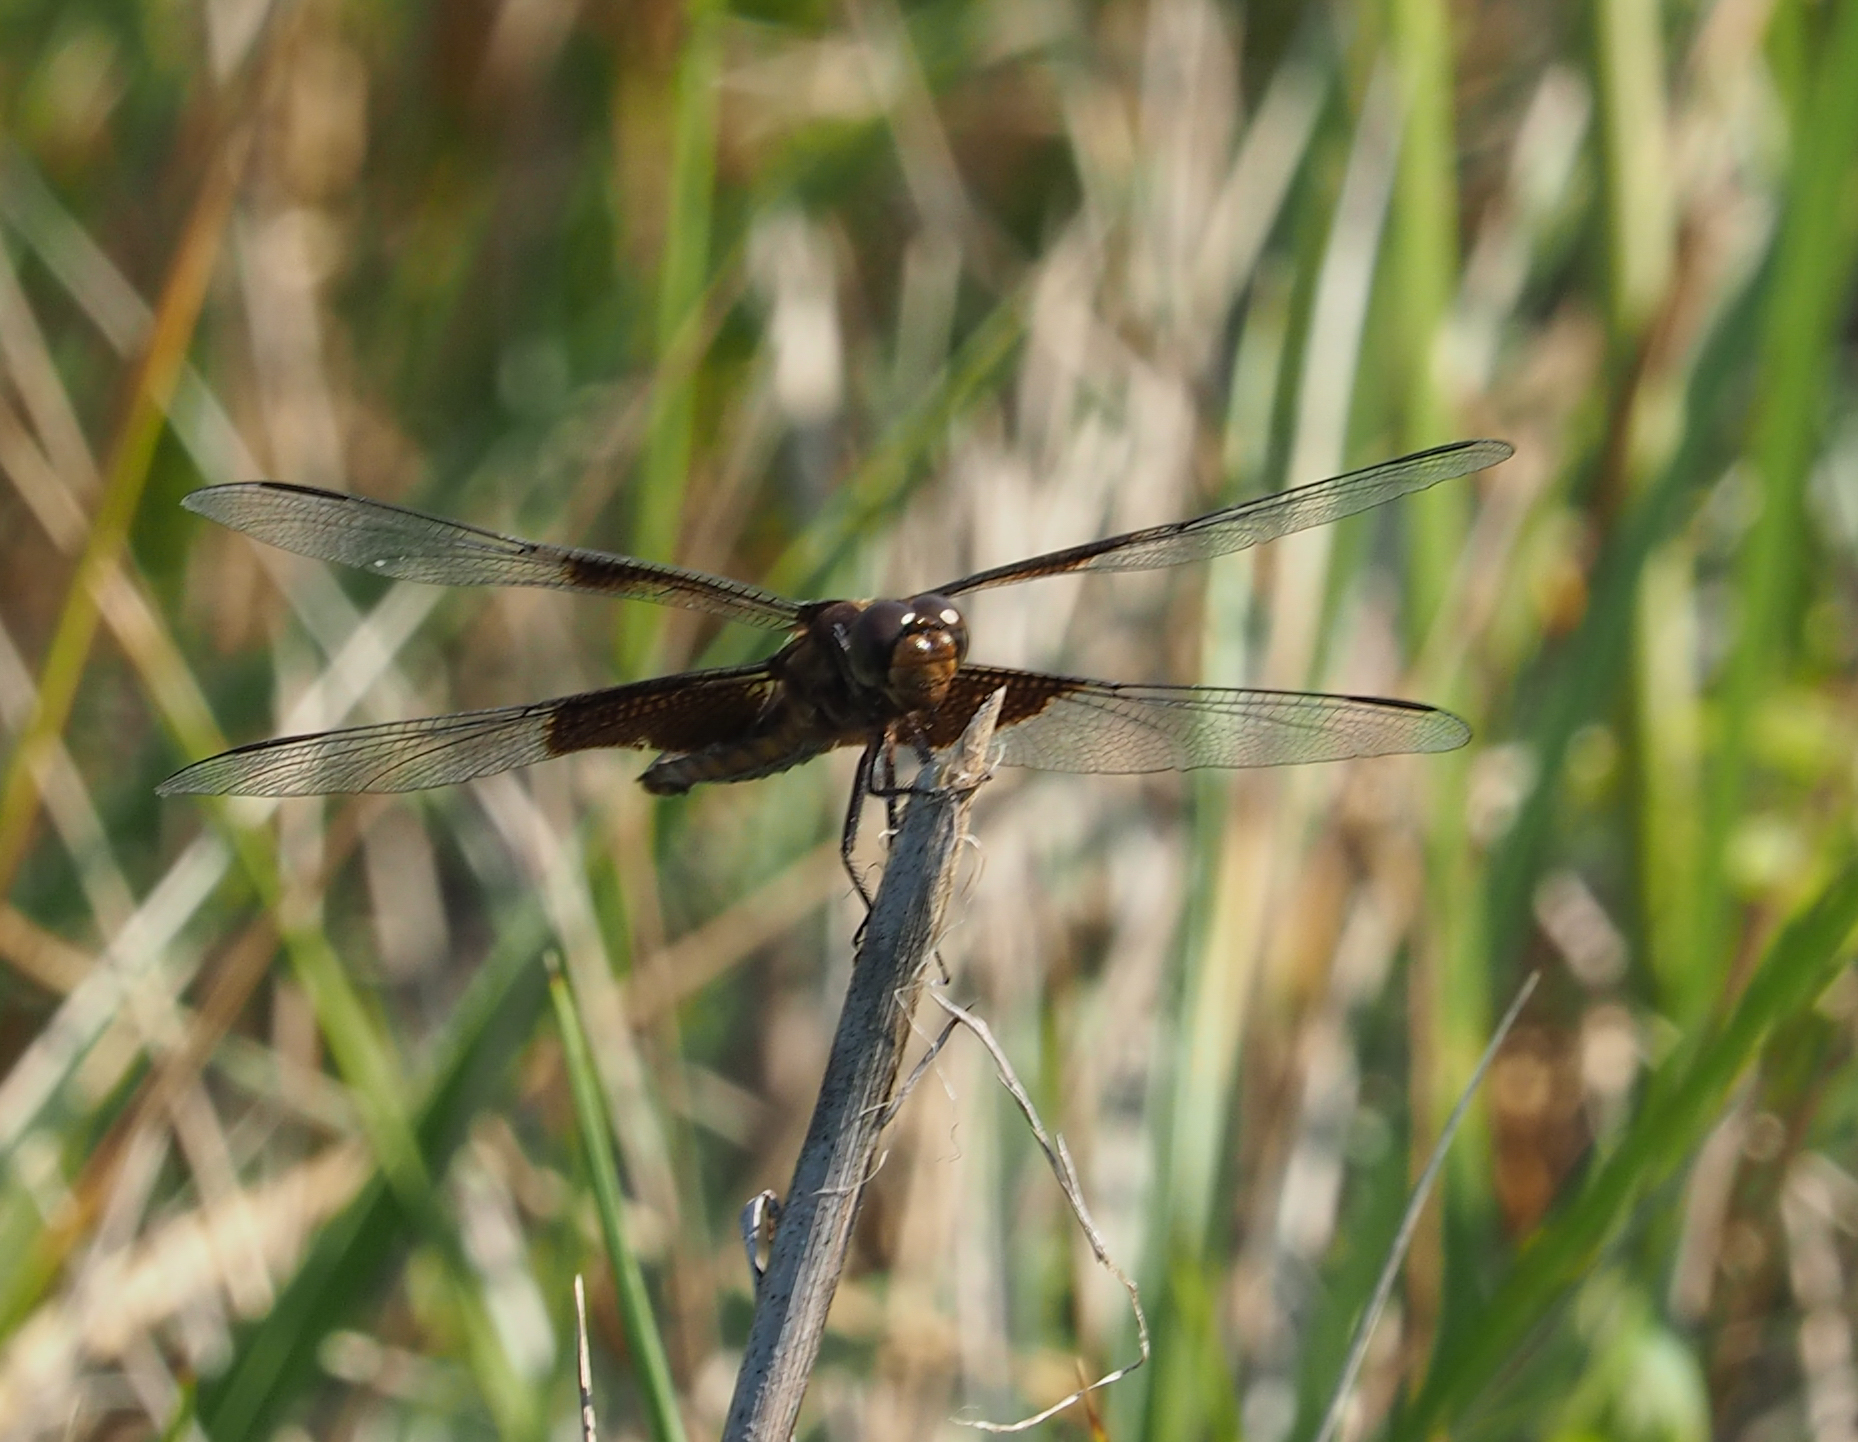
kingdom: Animalia
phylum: Arthropoda
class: Insecta
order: Odonata
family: Libellulidae
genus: Libellula
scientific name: Libellula luctuosa
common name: Widow skimmer
